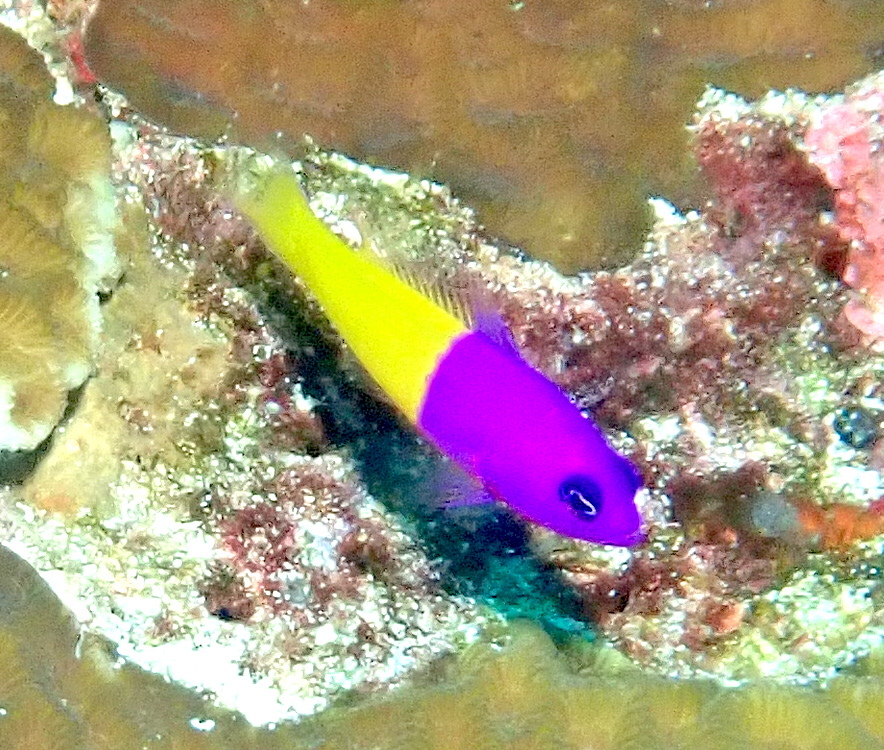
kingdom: Animalia
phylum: Chordata
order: Perciformes
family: Pseudochromidae
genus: Pictichromis
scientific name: Pictichromis paccagnellae
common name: Royal dottyback
